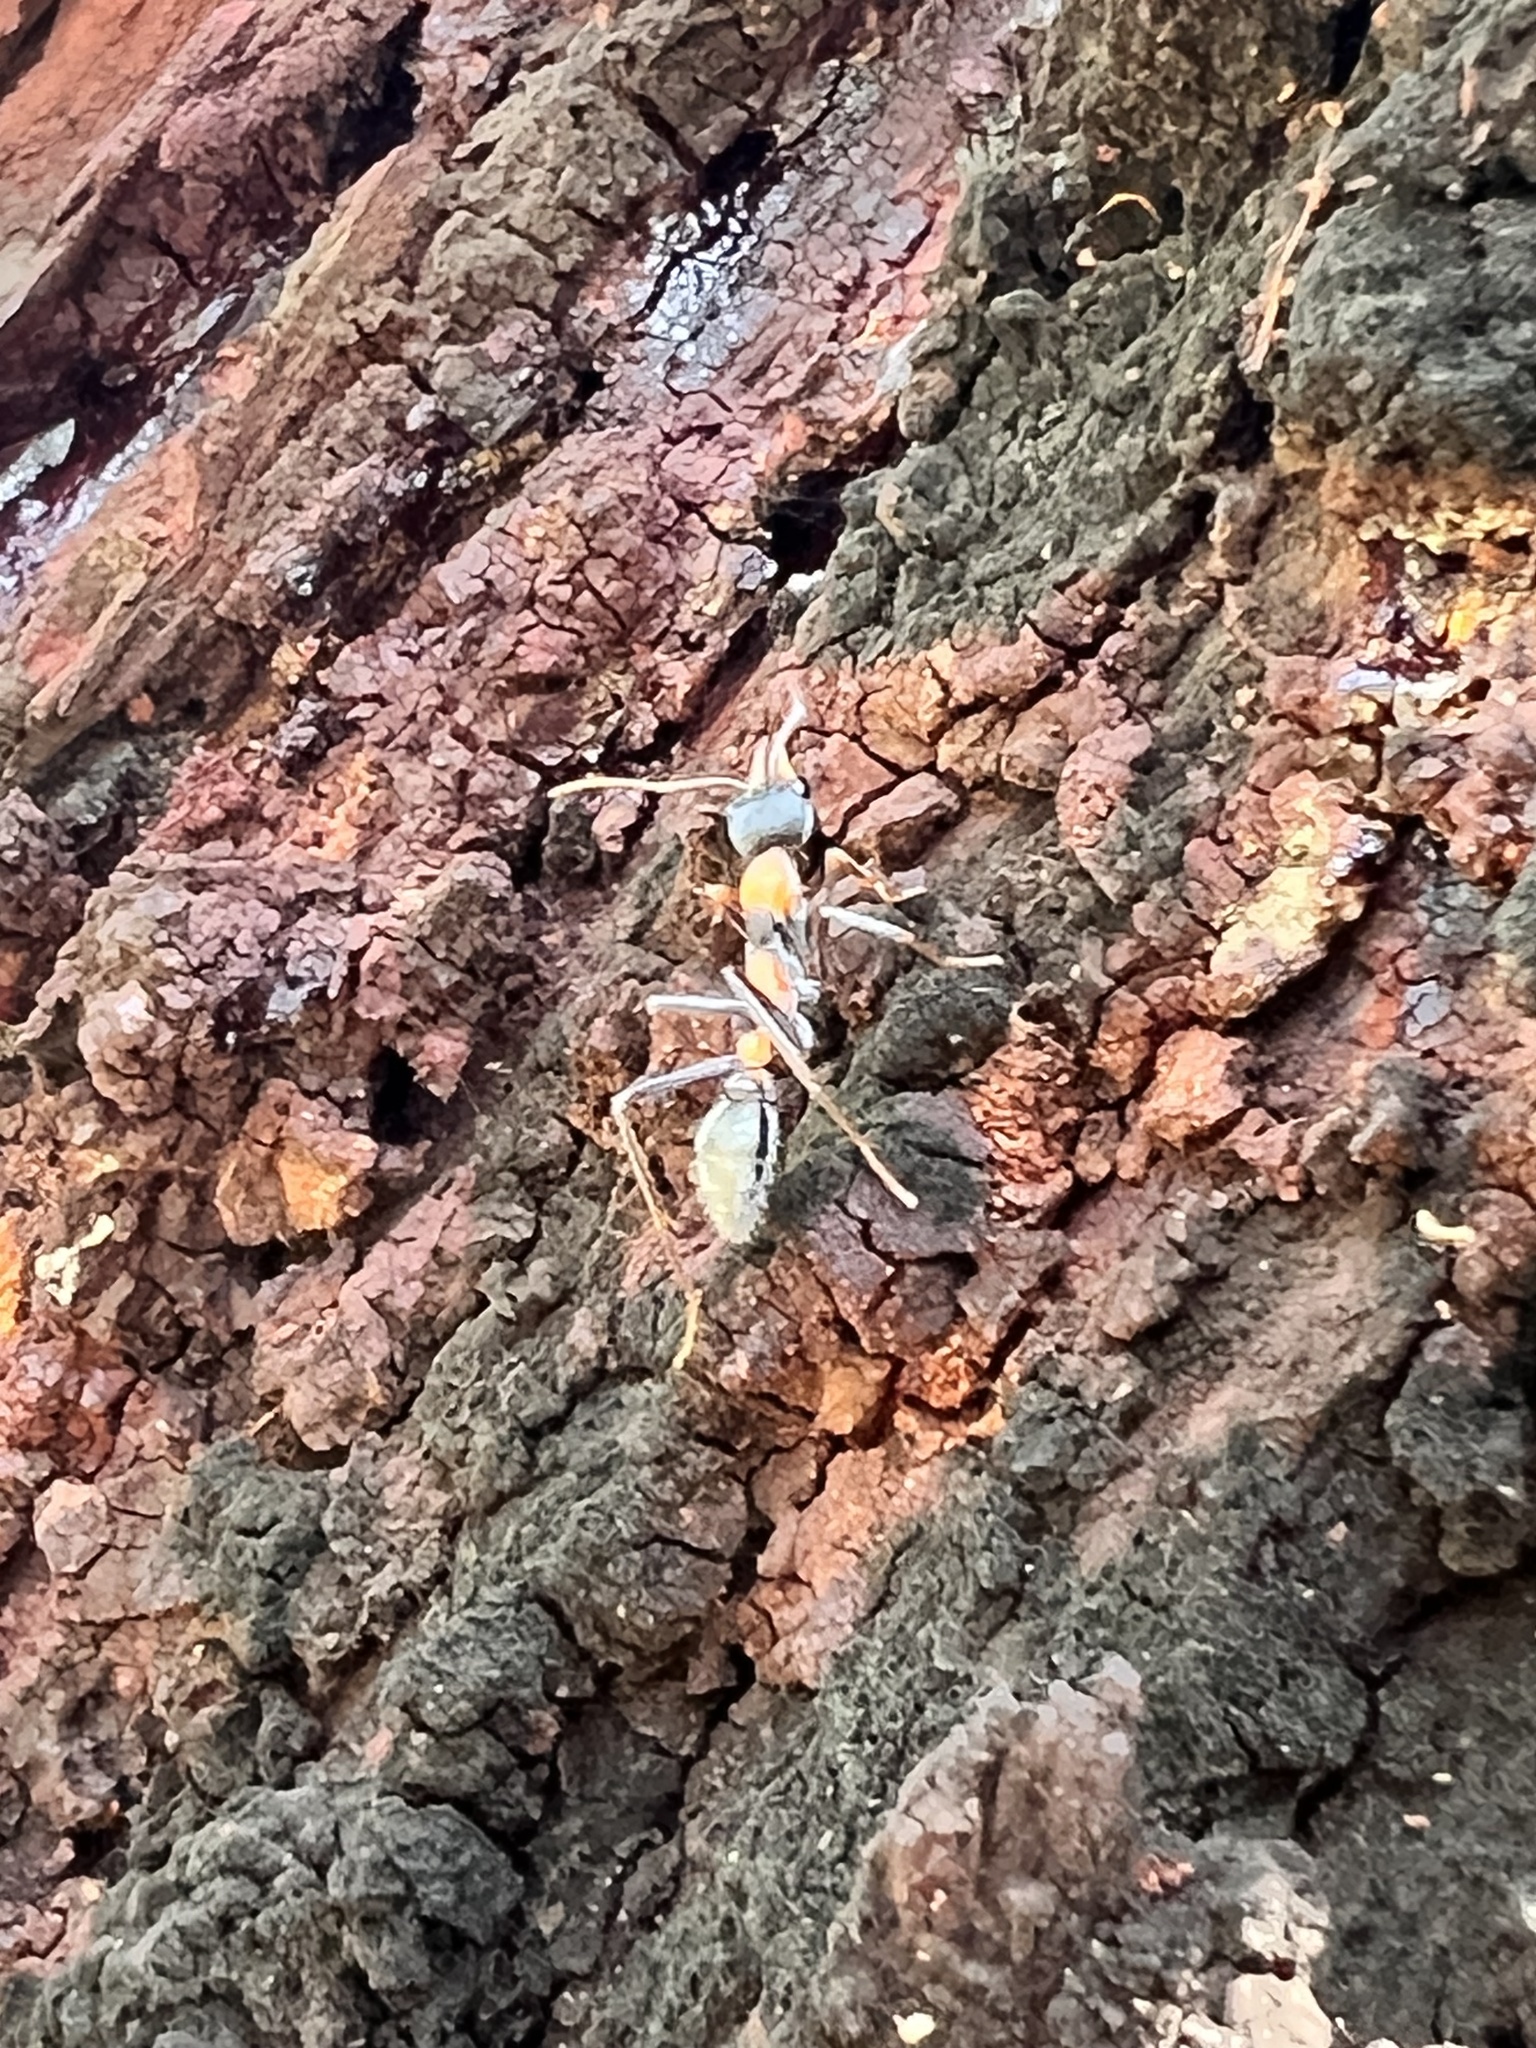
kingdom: Animalia
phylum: Arthropoda
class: Insecta
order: Hymenoptera
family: Formicidae
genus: Myrmecia
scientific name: Myrmecia nigrocincta
